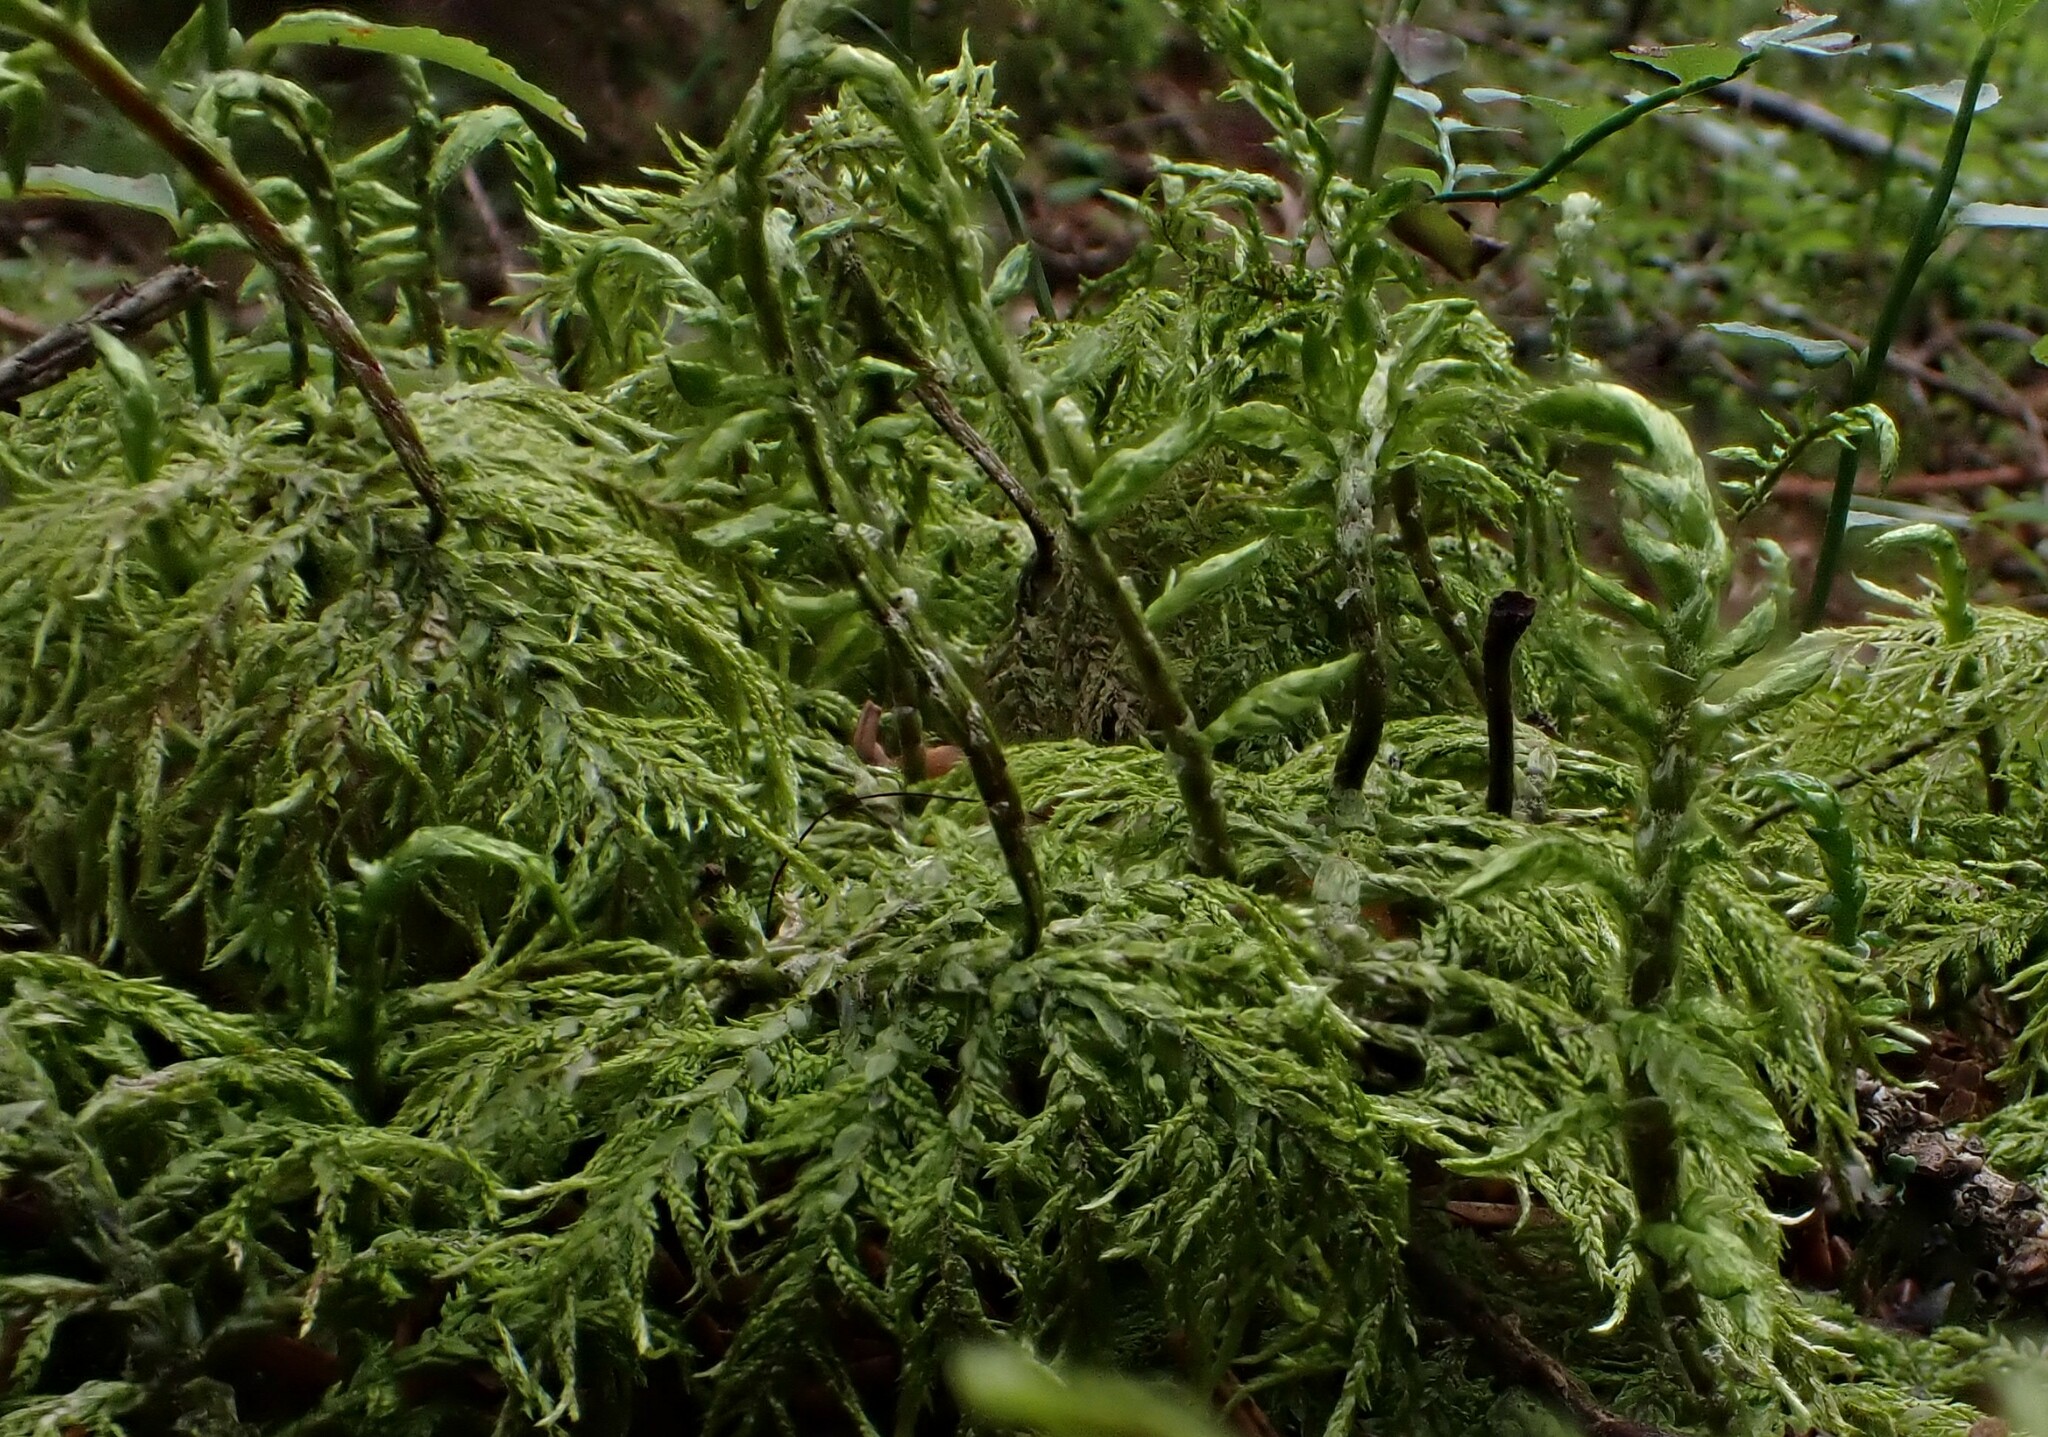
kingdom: Plantae
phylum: Bryophyta
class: Bryopsida
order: Hypnales
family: Hylocomiaceae
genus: Hylocomium
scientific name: Hylocomium splendens
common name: Stairstep moss
